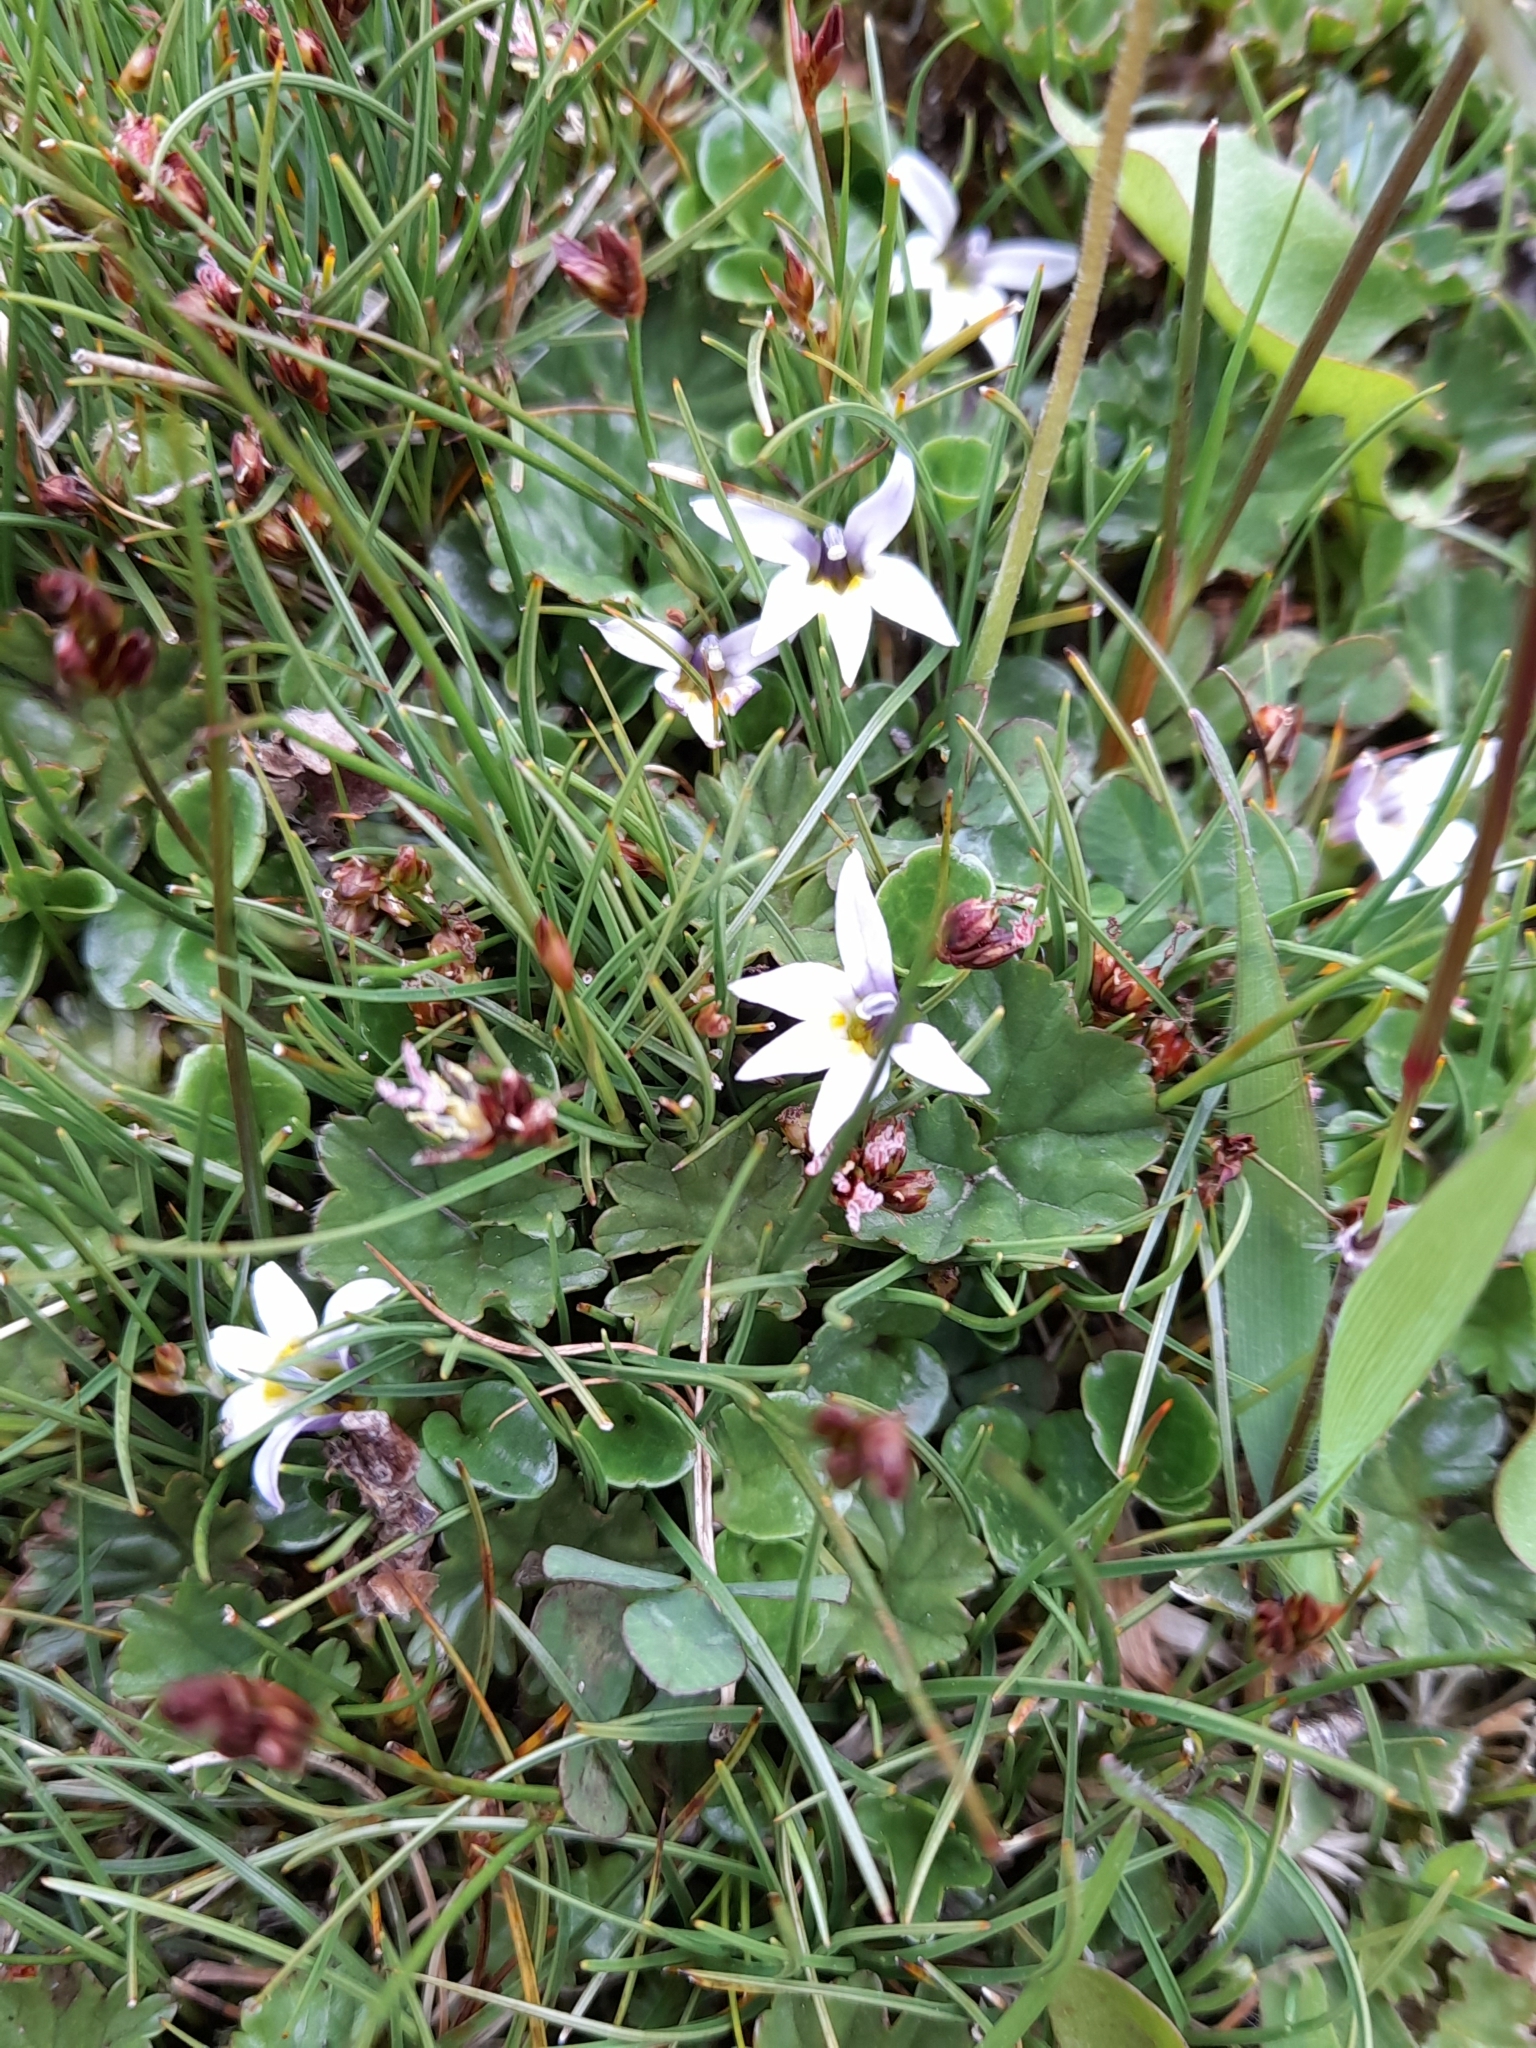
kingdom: Plantae
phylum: Tracheophyta
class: Magnoliopsida
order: Asterales
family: Campanulaceae
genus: Lobelia
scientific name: Lobelia oligophylla
